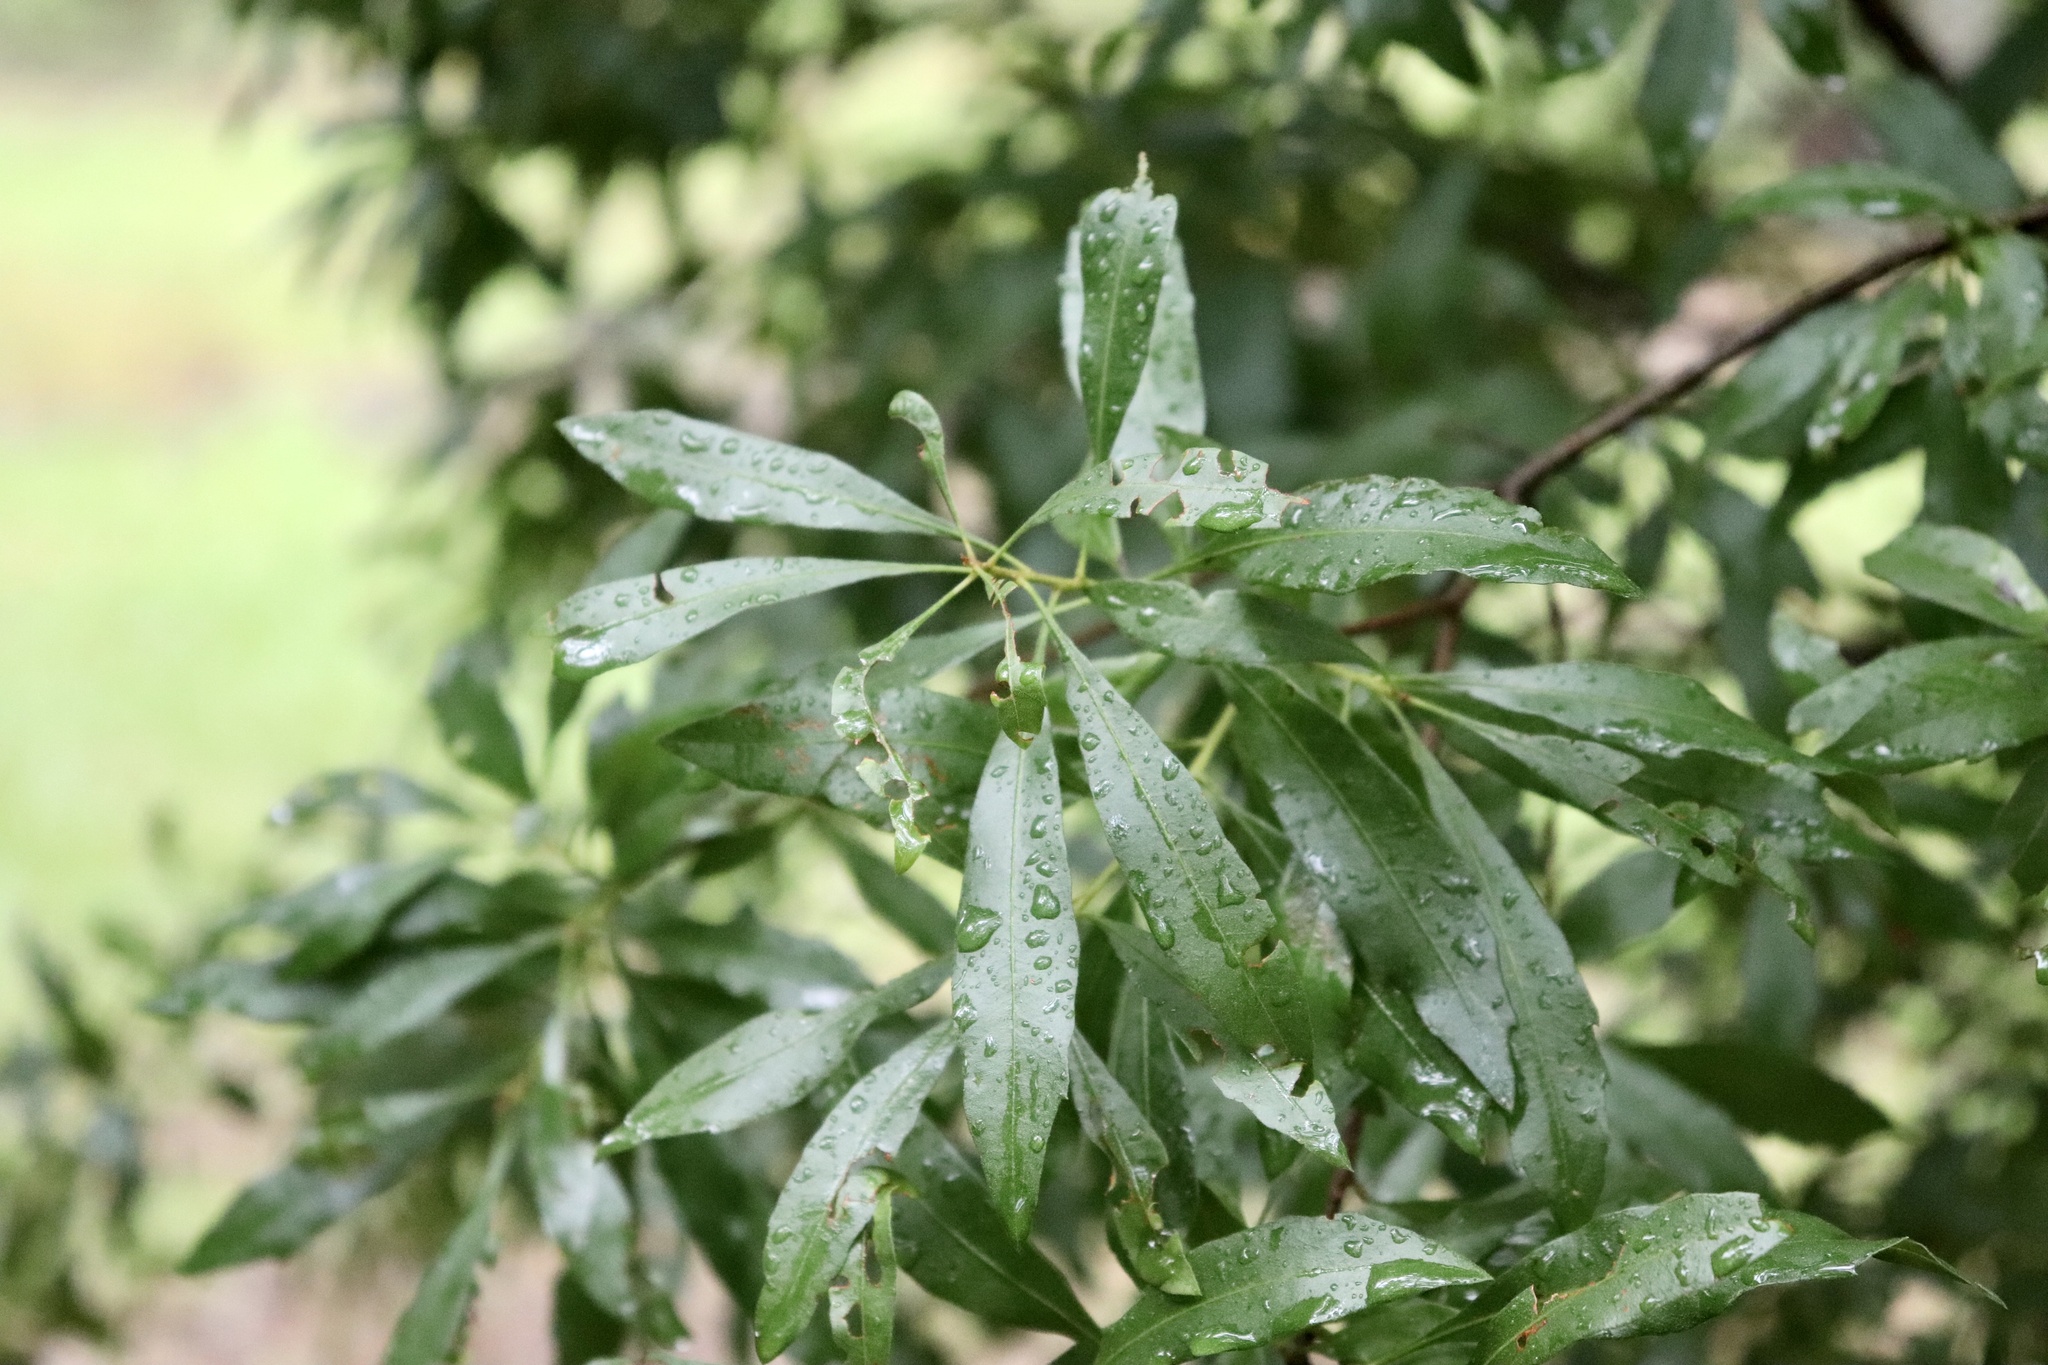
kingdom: Plantae
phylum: Tracheophyta
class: Magnoliopsida
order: Fagales
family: Myricaceae
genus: Morella
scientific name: Morella cerifera
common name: Wax myrtle
